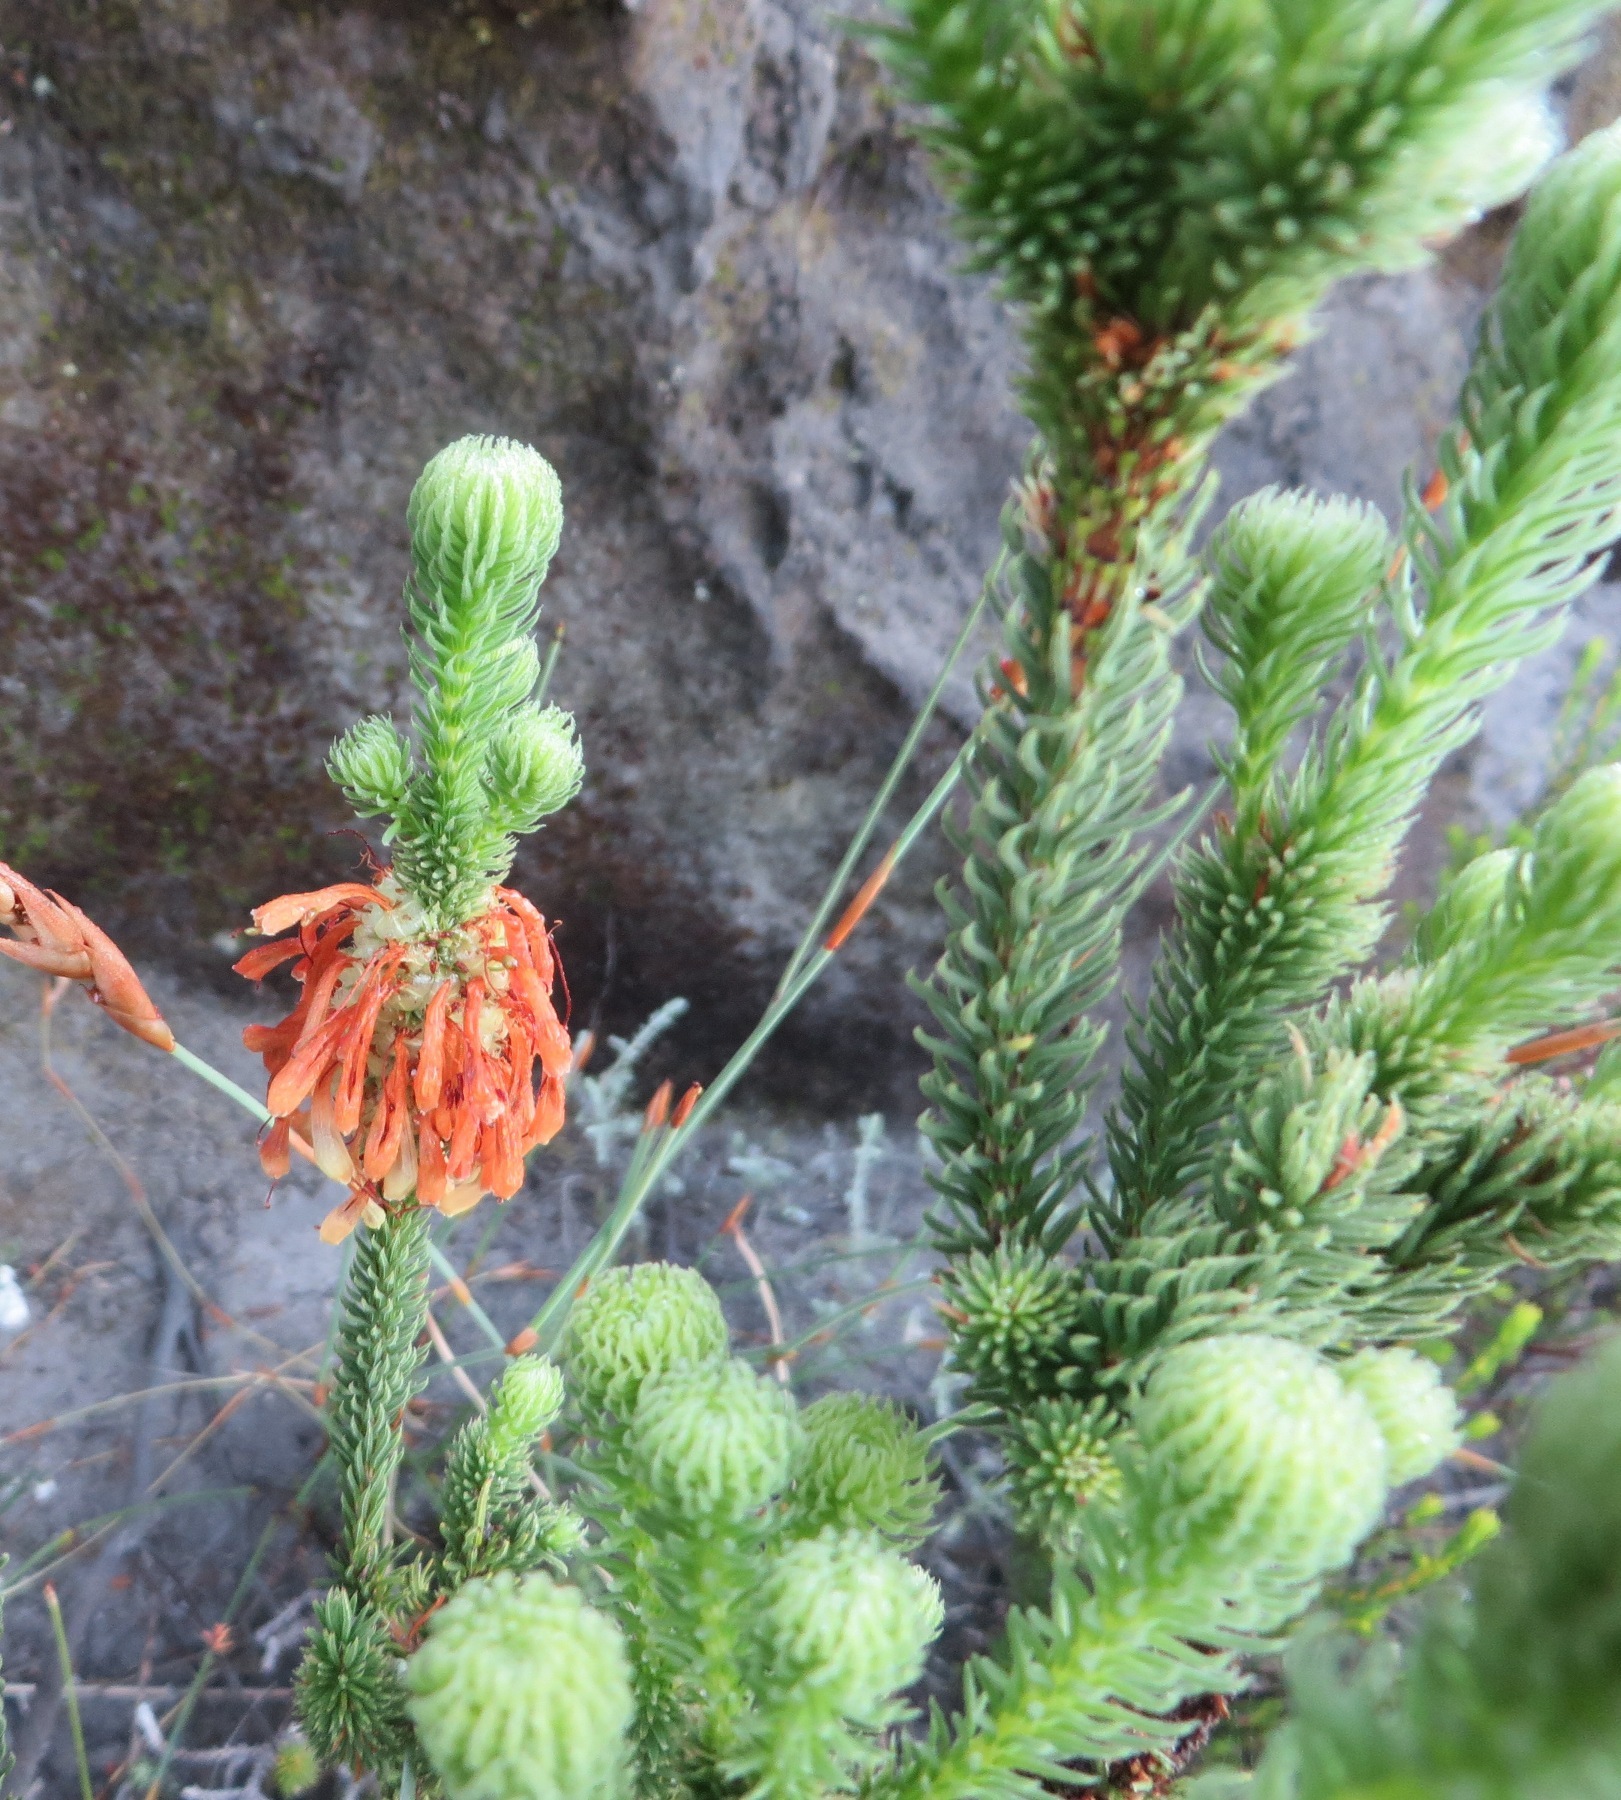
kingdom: Plantae
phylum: Tracheophyta
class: Magnoliopsida
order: Ericales
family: Ericaceae
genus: Erica
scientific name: Erica sessiliflora
